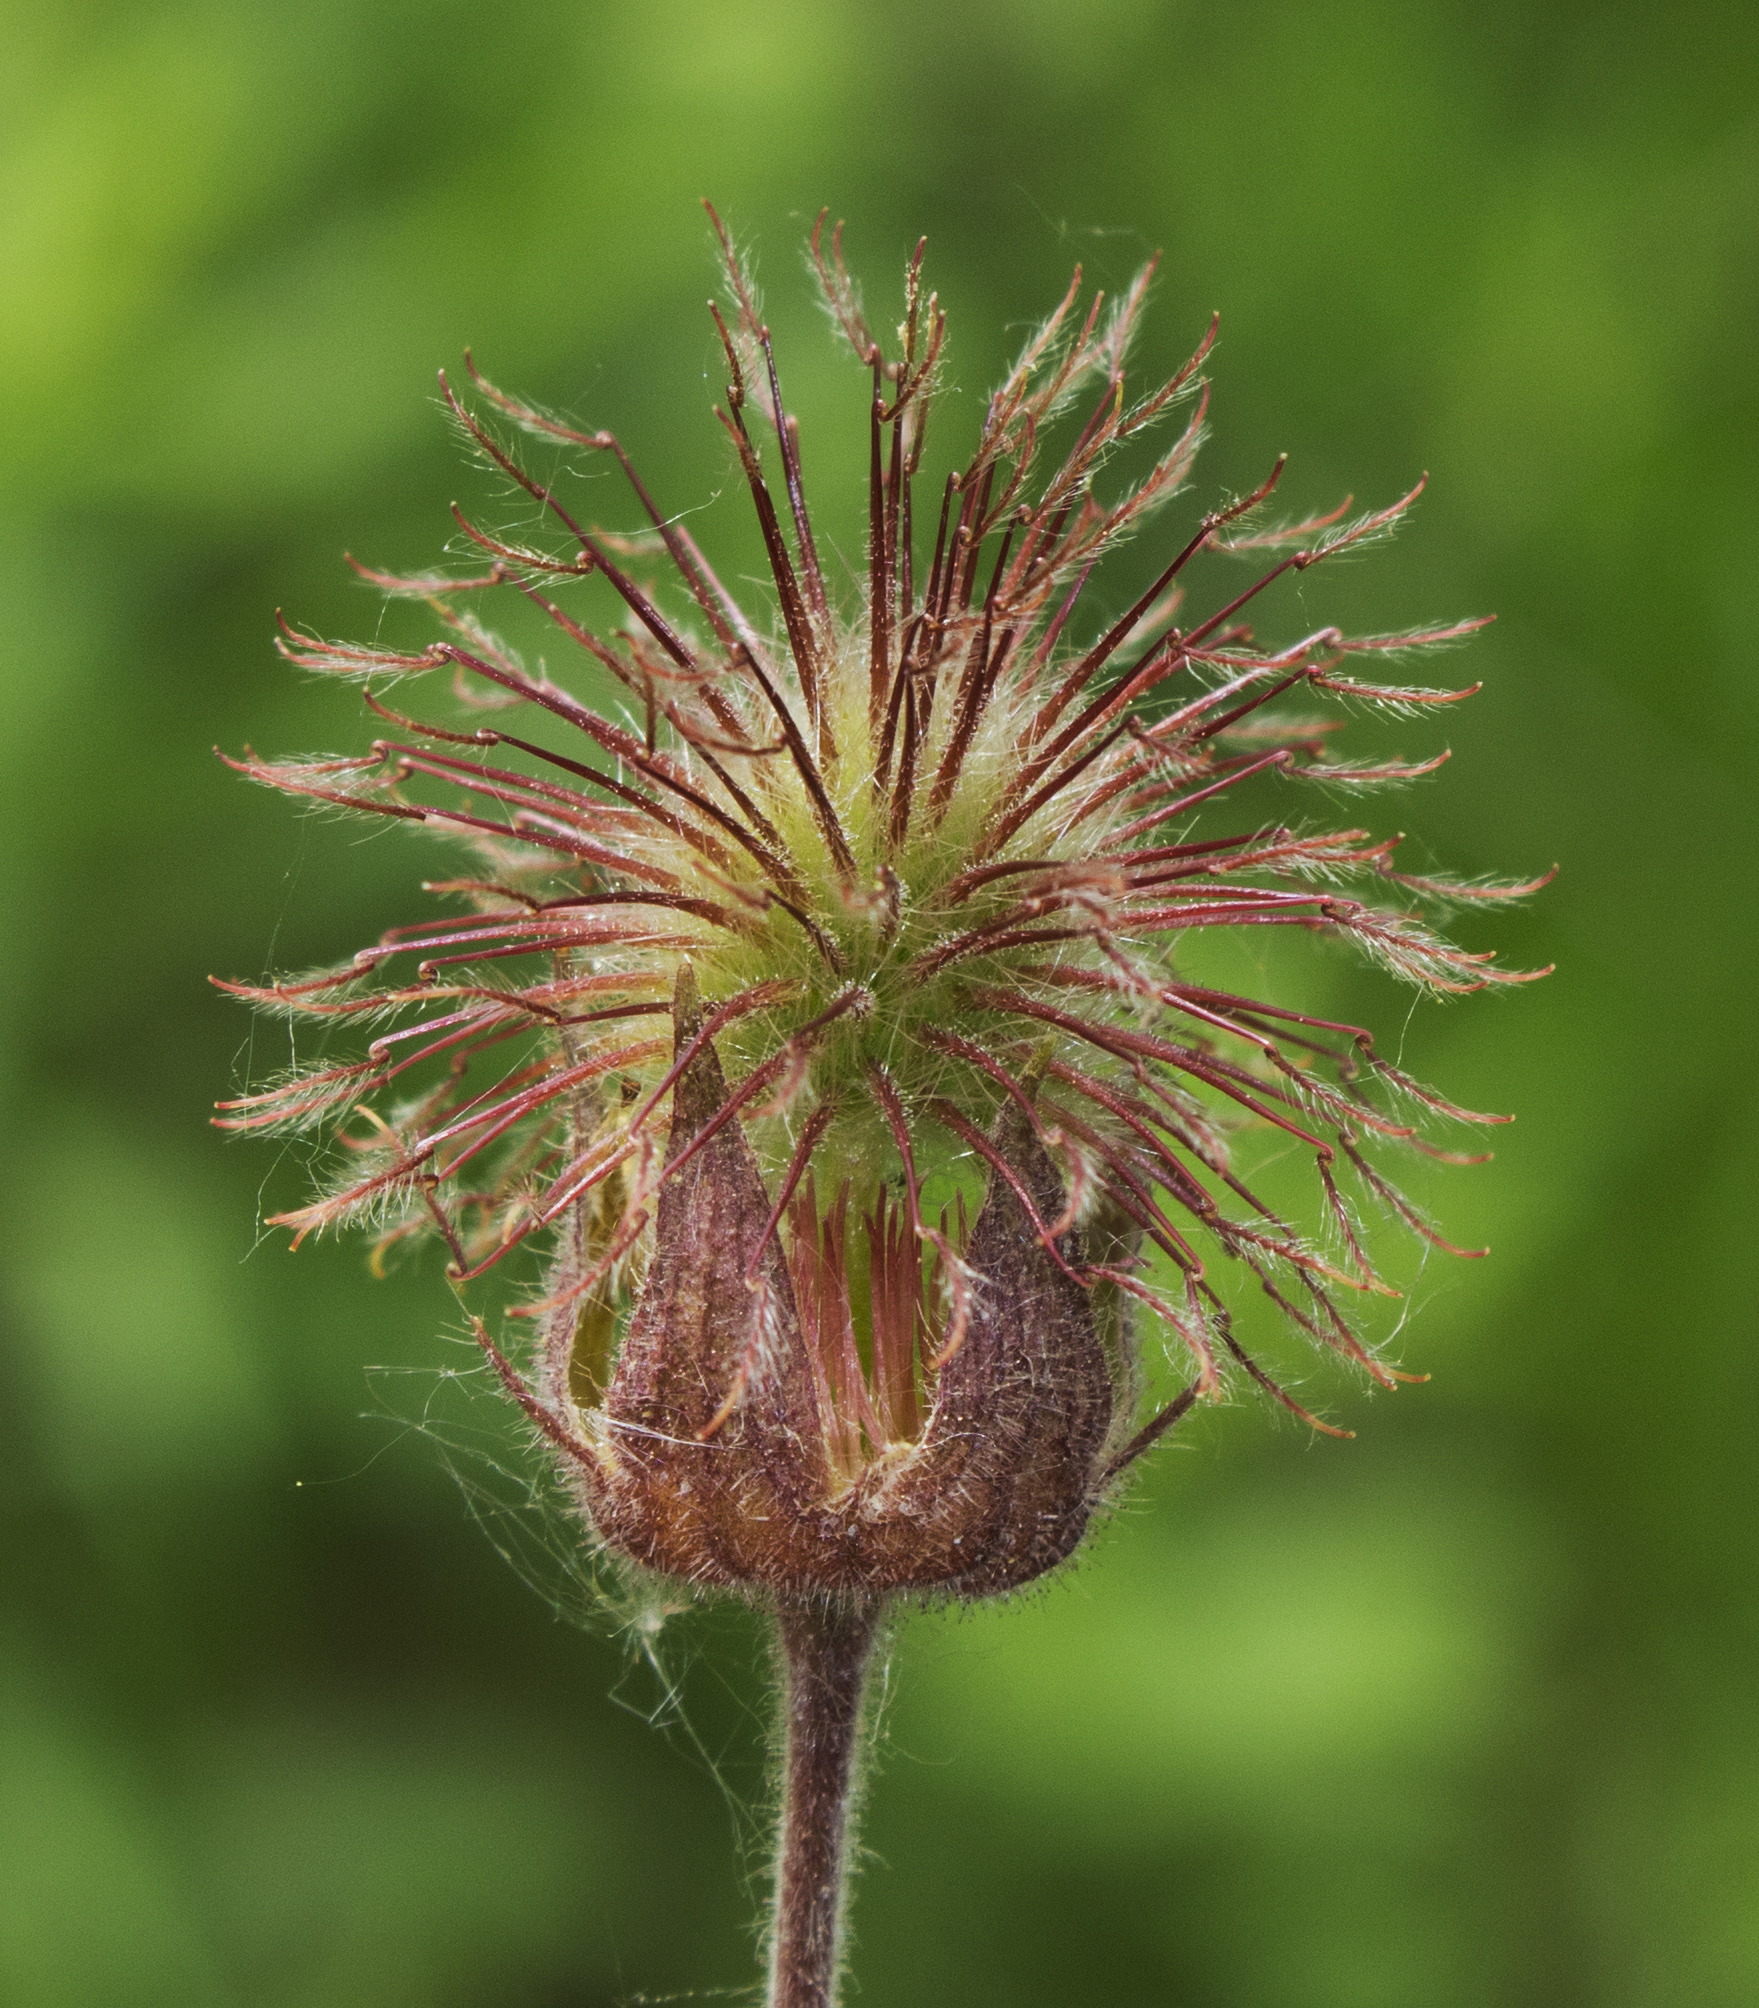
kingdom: Plantae
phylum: Tracheophyta
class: Magnoliopsida
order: Rosales
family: Rosaceae
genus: Geum
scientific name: Geum rivale
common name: Water avens
